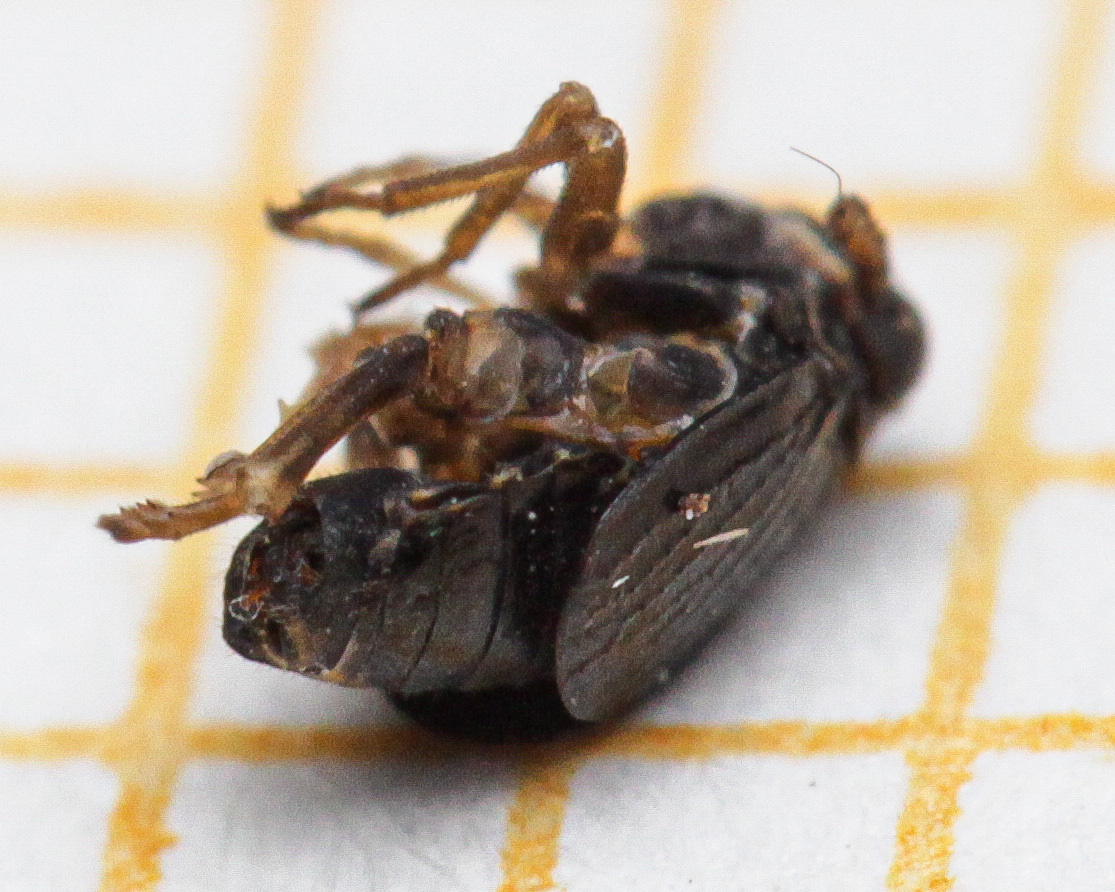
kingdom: Animalia
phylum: Arthropoda
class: Insecta
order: Hemiptera
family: Delphacidae
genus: Ditropsis
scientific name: Ditropsis flavipes
